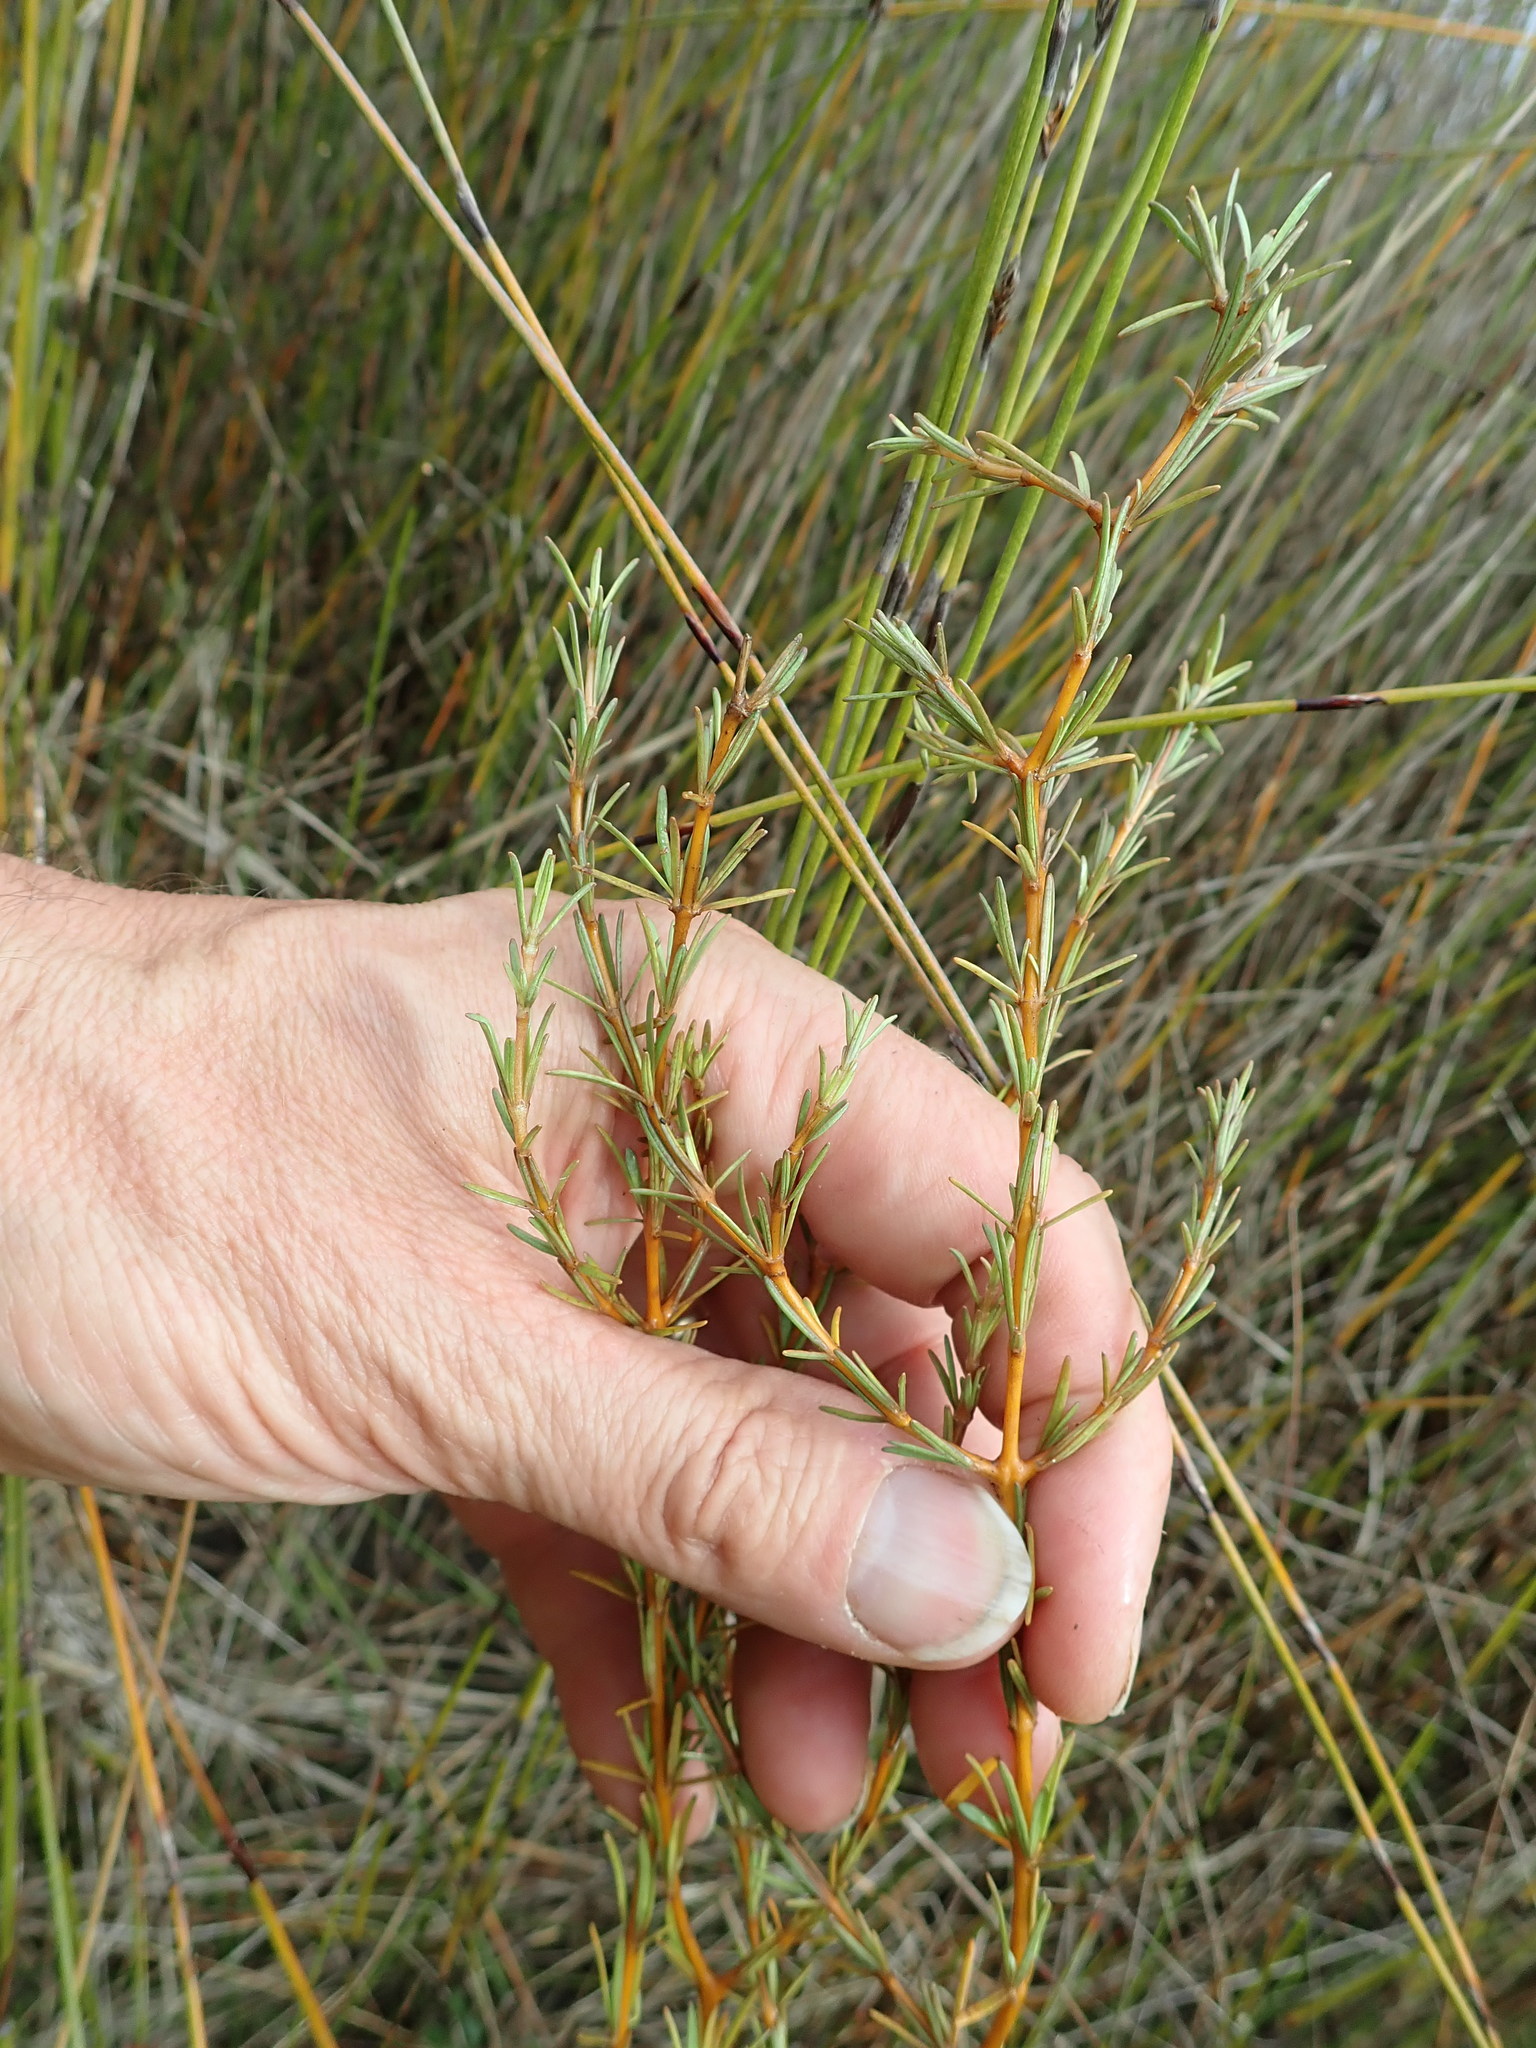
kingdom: Plantae
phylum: Tracheophyta
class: Magnoliopsida
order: Gentianales
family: Rubiaceae
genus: Coprosma
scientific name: Coprosma acerosa
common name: Sand coprosma
